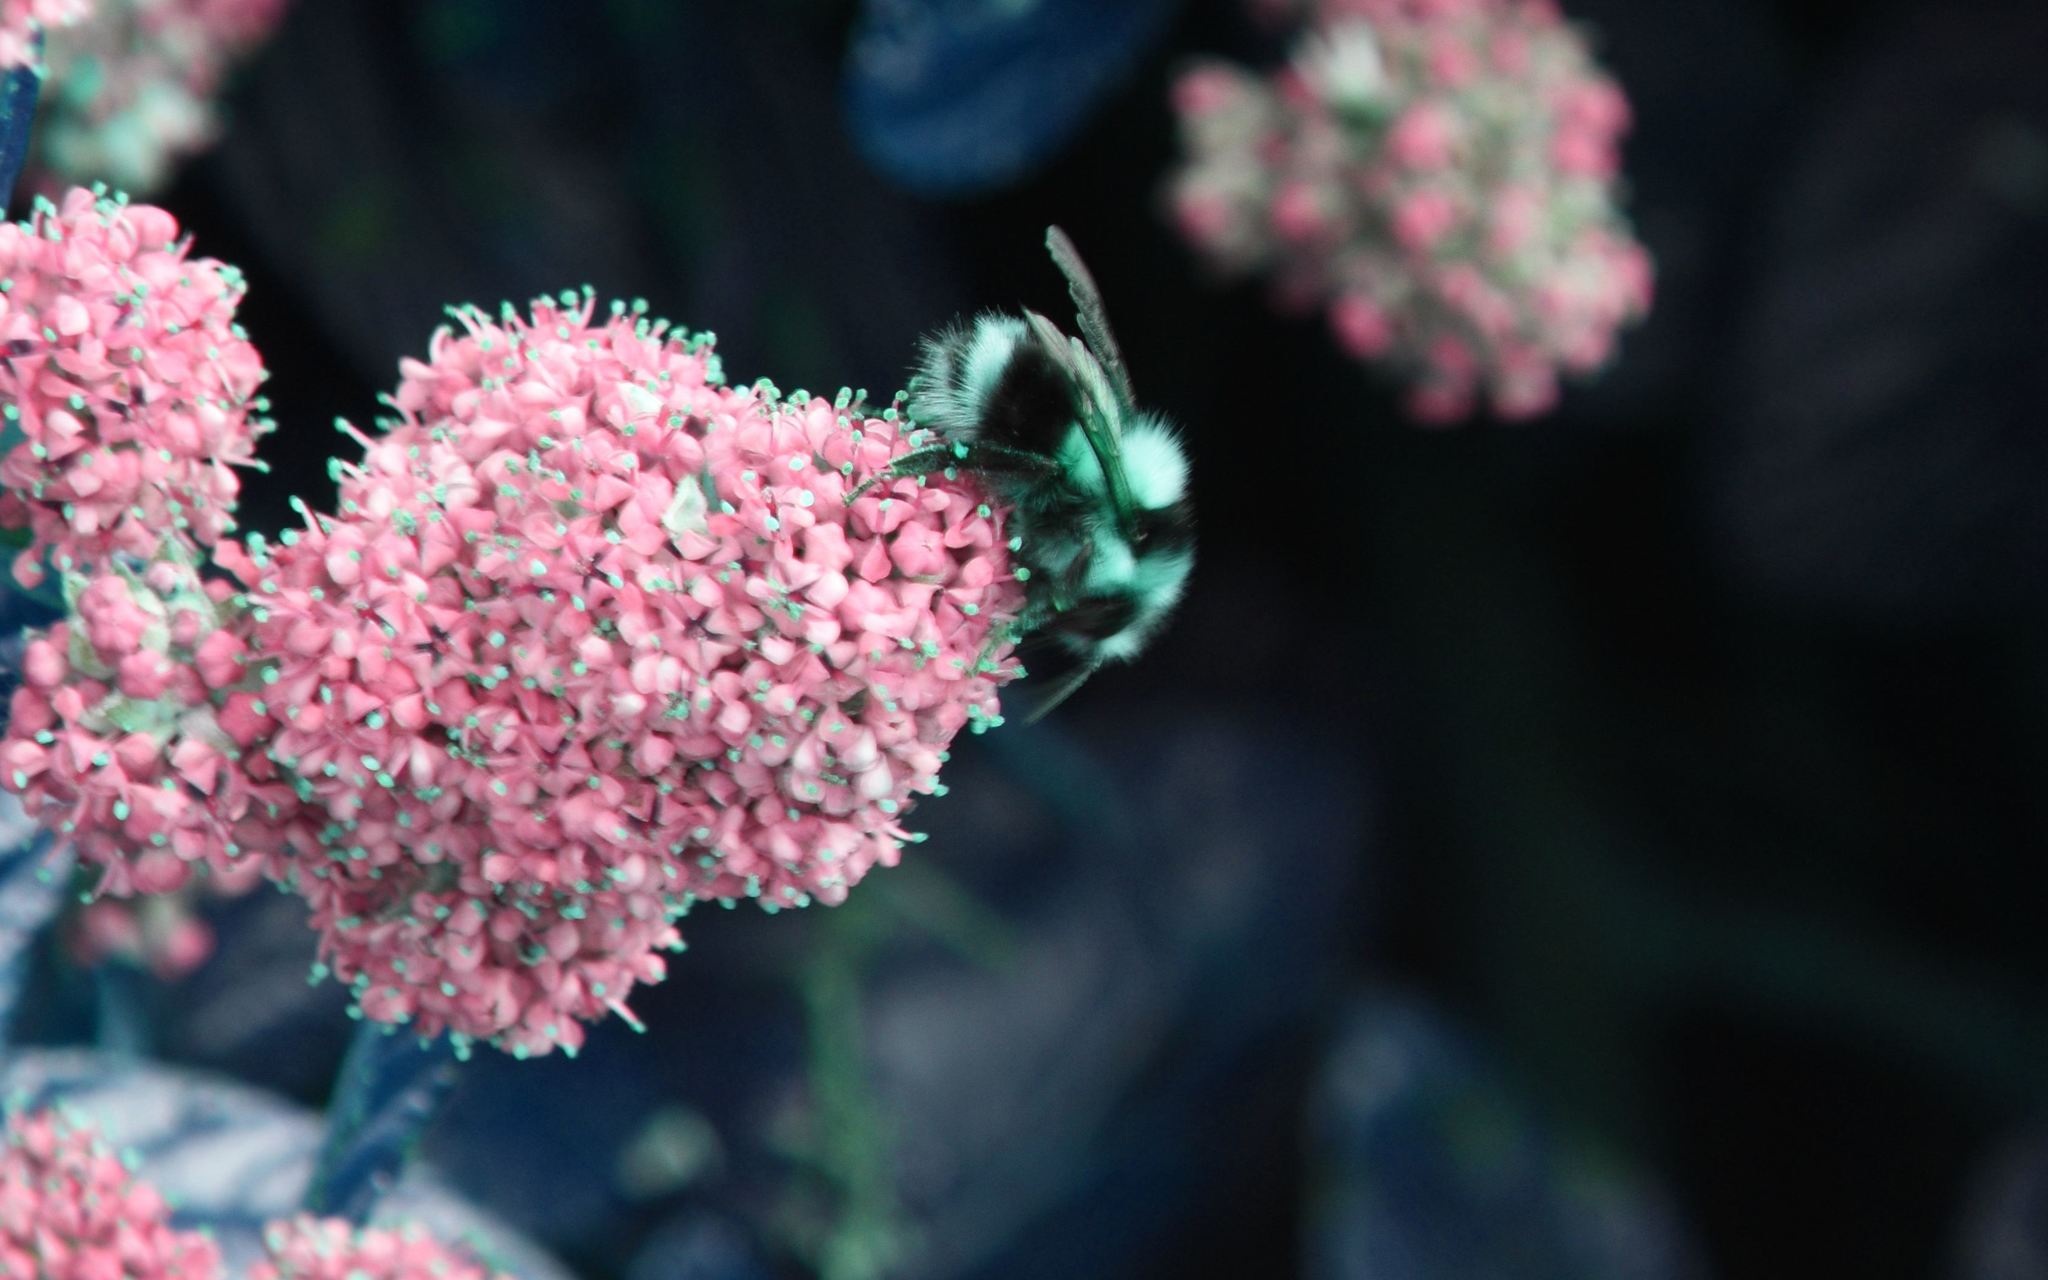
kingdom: Animalia
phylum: Arthropoda
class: Insecta
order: Hymenoptera
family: Apidae
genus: Bombus
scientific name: Bombus melanopygus
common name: Black tail bumble bee
